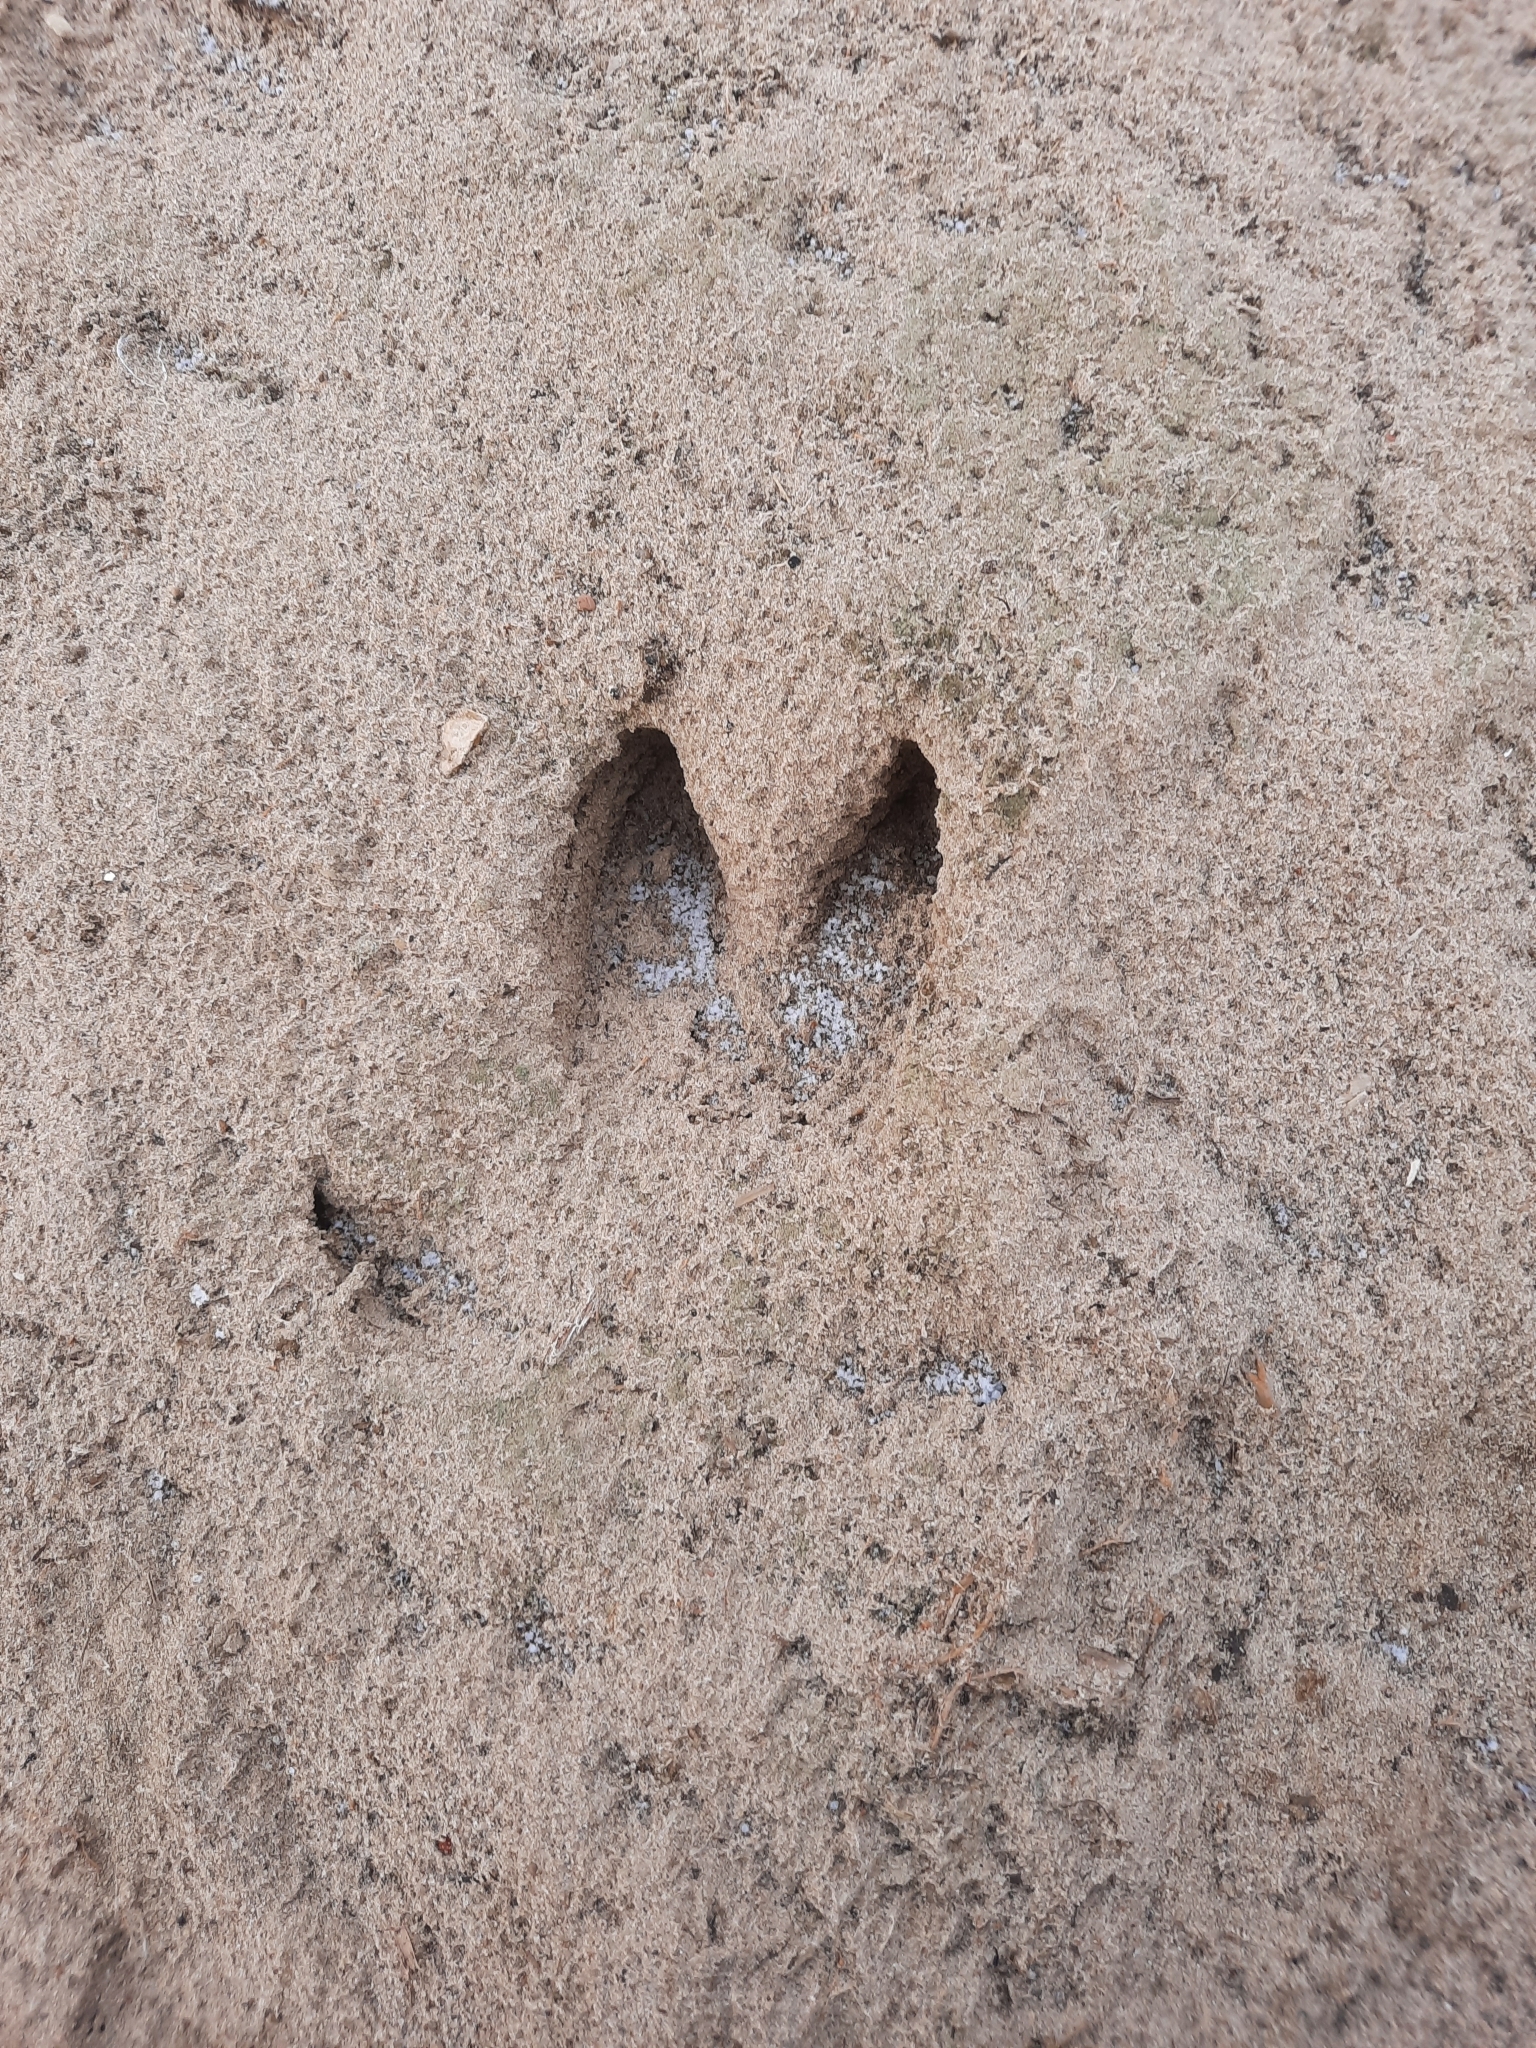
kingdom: Animalia
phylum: Chordata
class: Mammalia
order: Artiodactyla
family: Suidae
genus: Sus
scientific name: Sus scrofa
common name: Wild boar
